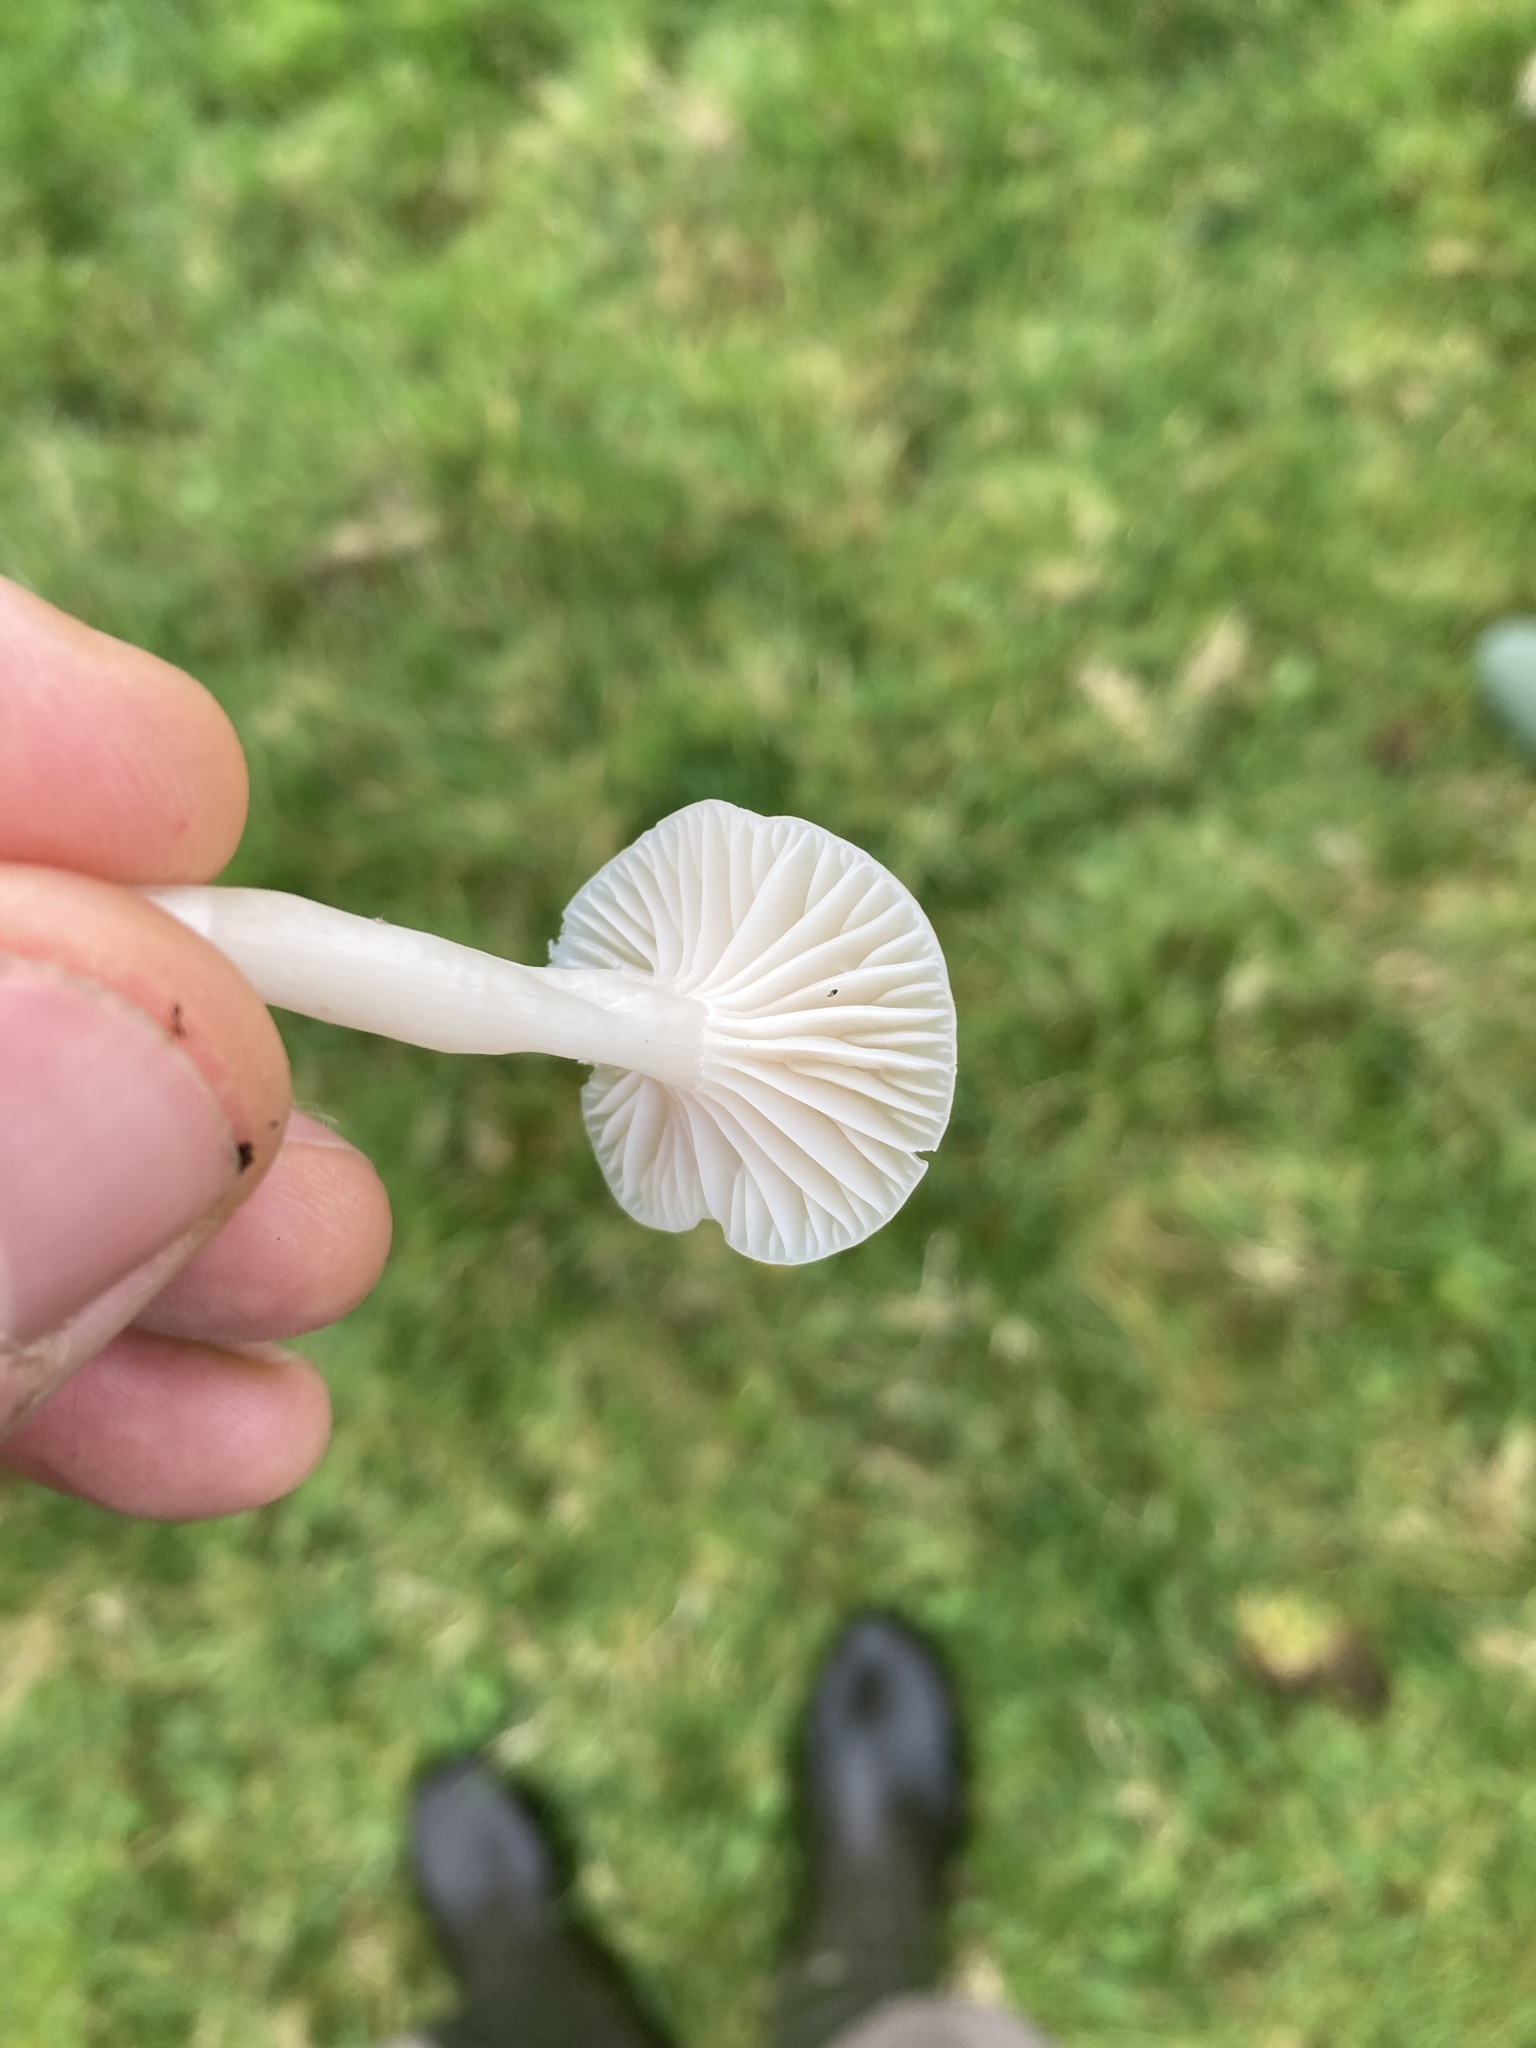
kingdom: Fungi
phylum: Basidiomycota
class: Agaricomycetes
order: Agaricales
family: Hygrophoraceae
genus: Cuphophyllus
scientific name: Cuphophyllus virgineus
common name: Snowy waxcap
